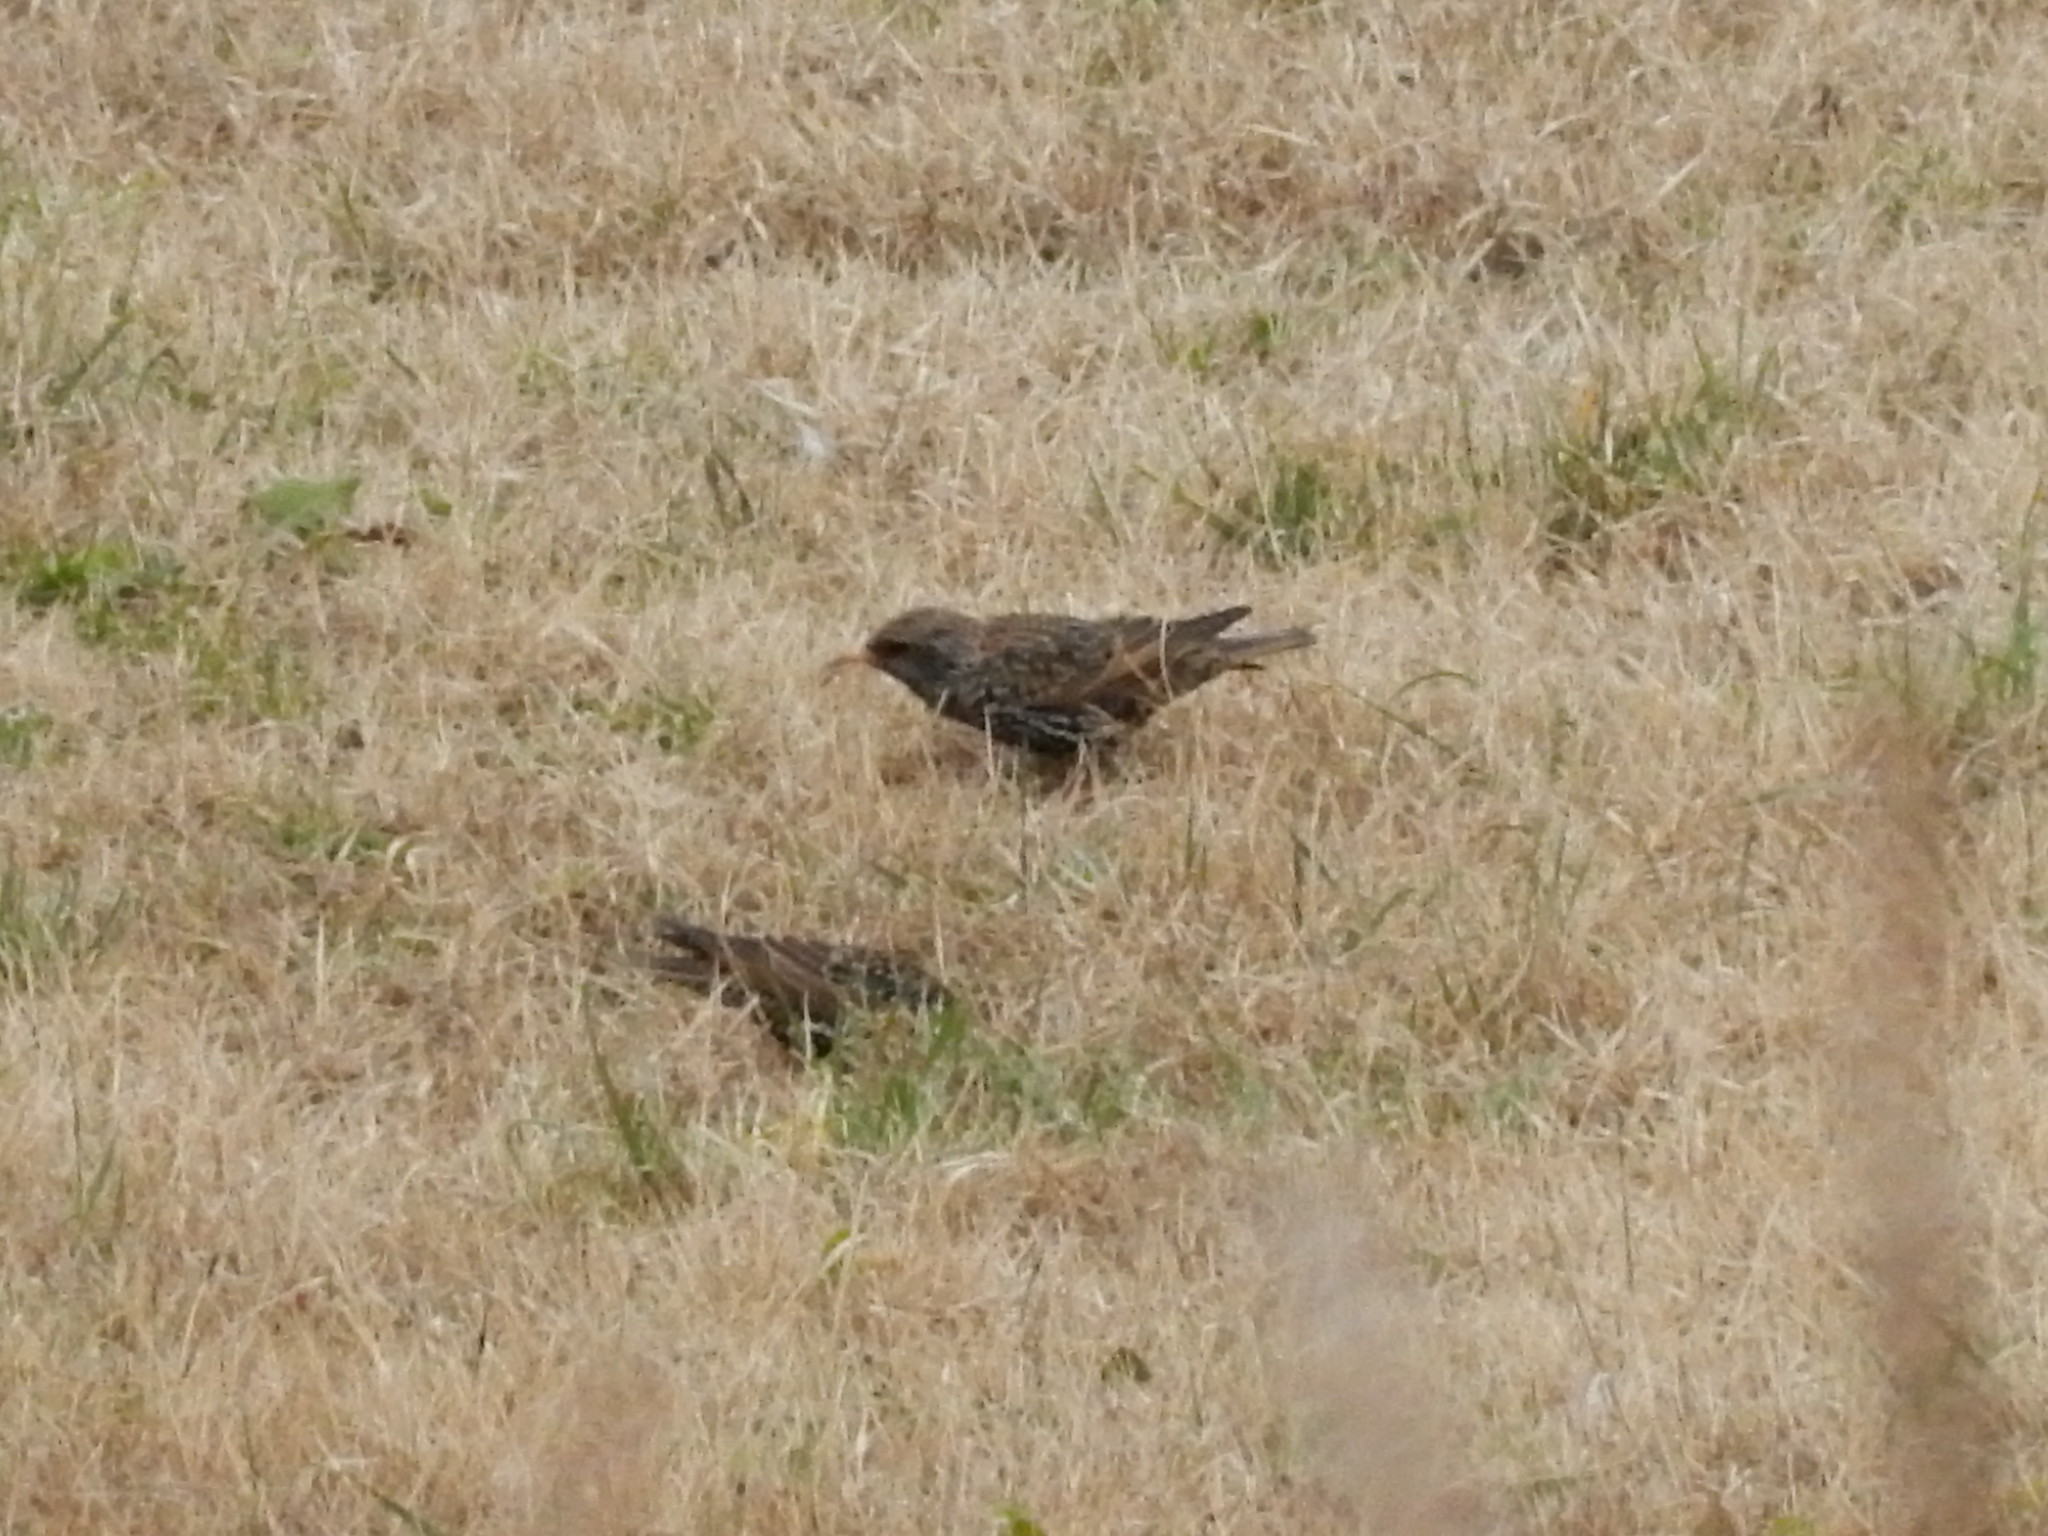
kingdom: Animalia
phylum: Chordata
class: Aves
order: Passeriformes
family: Sturnidae
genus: Sturnus
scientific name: Sturnus vulgaris
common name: Common starling
